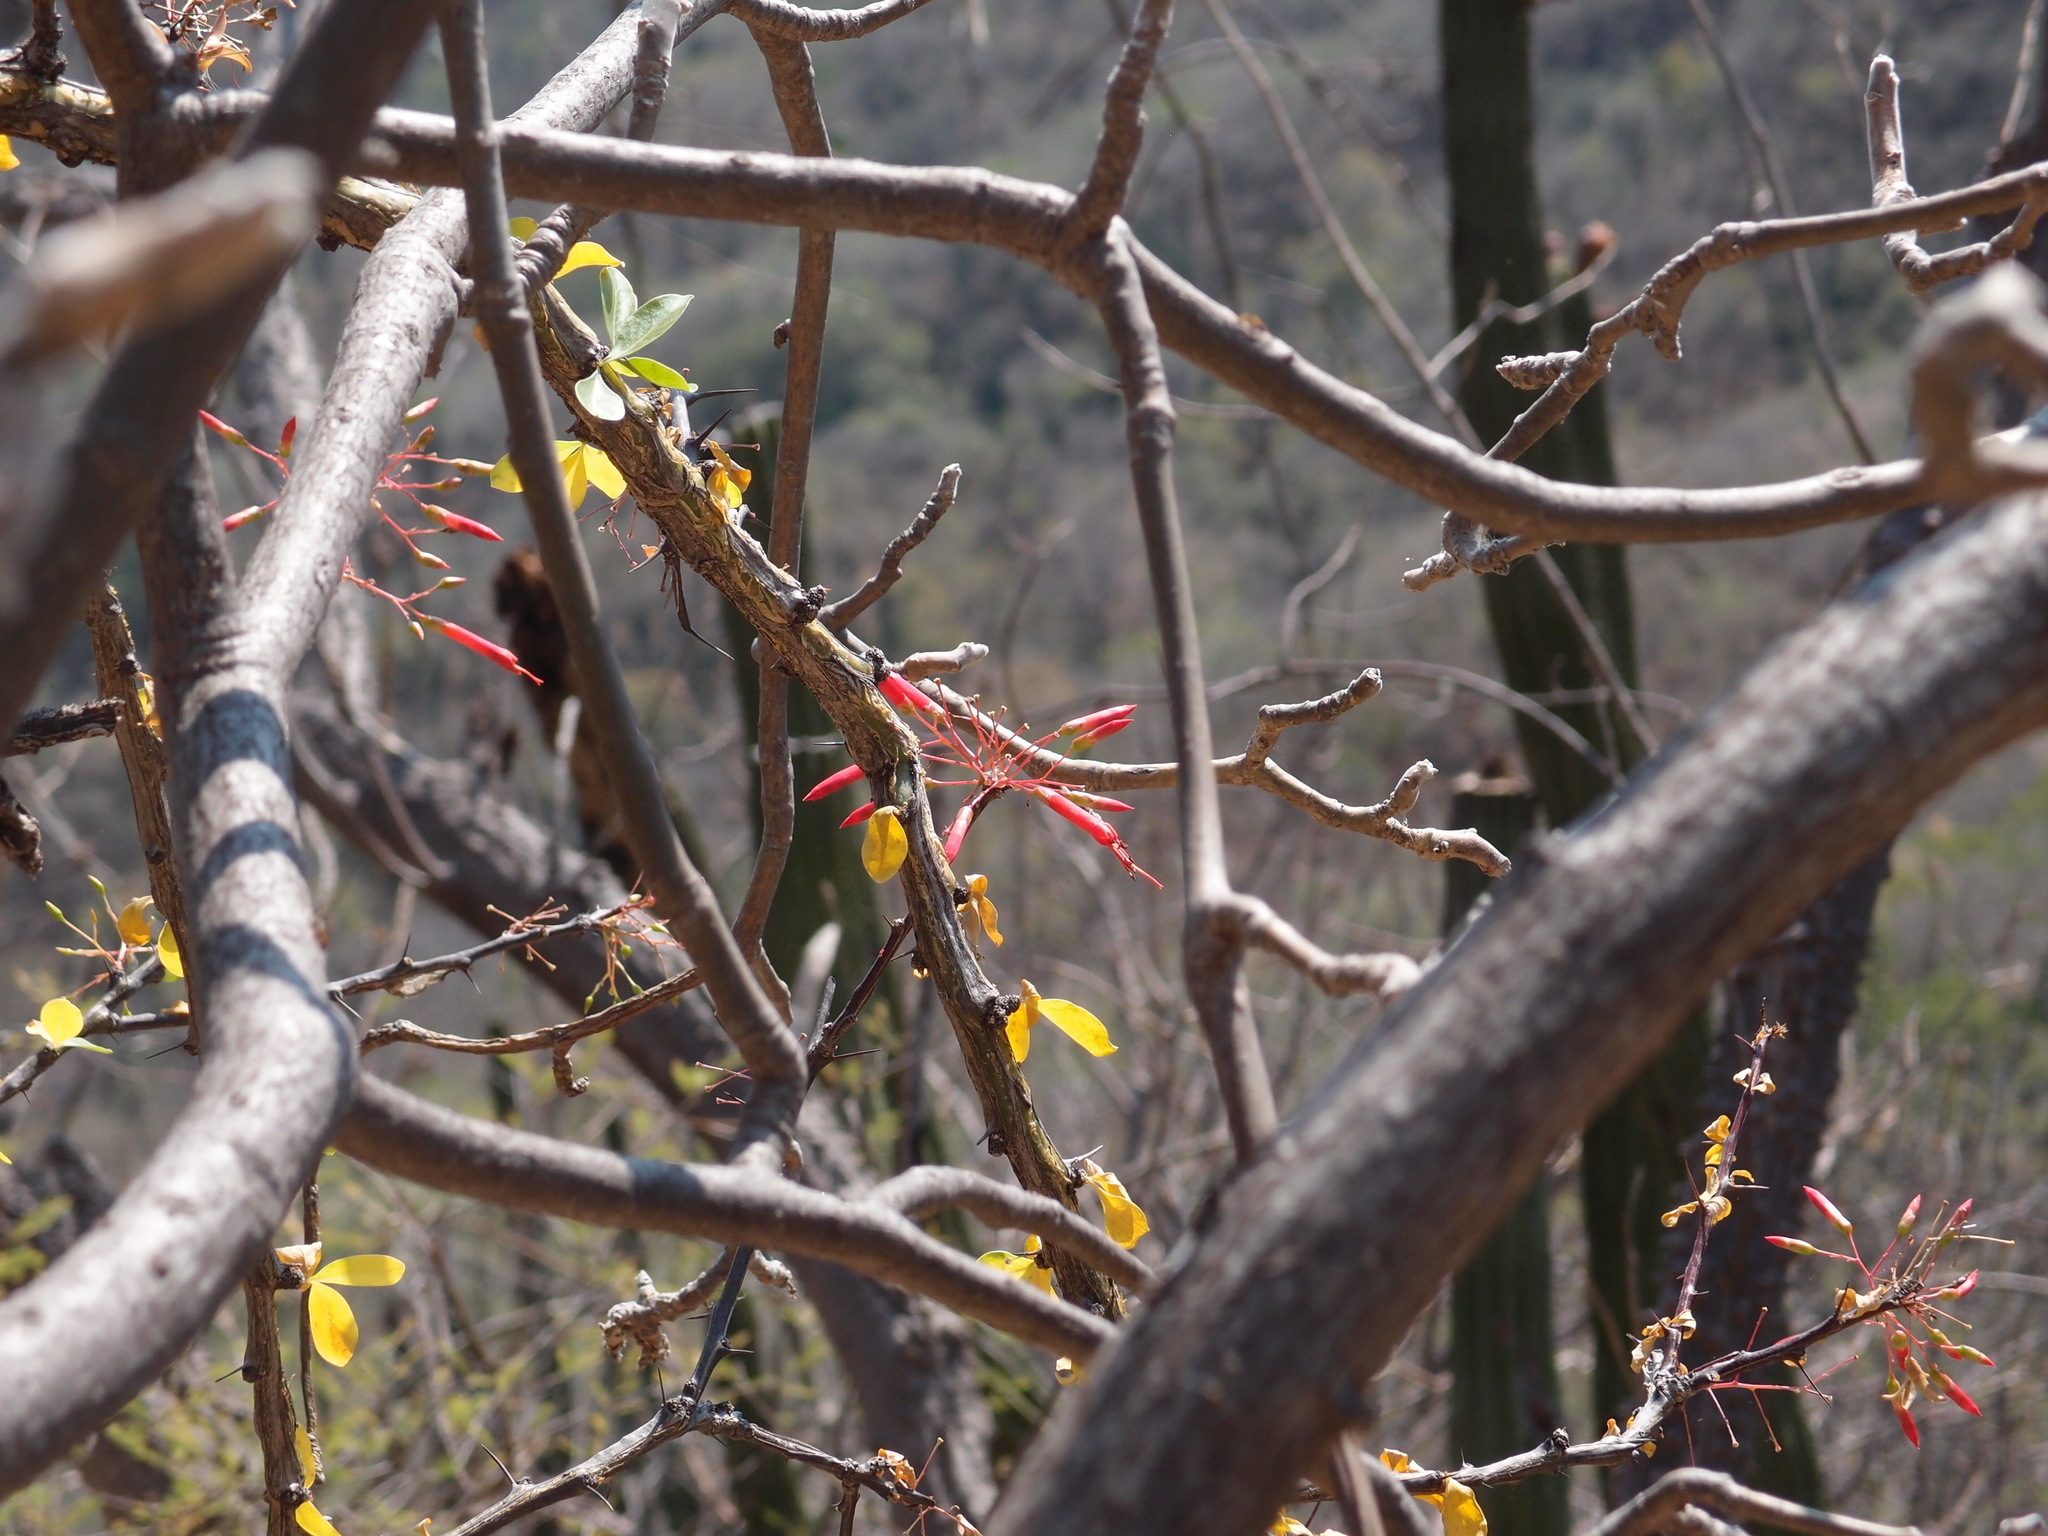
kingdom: Plantae
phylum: Tracheophyta
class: Magnoliopsida
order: Ericales
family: Fouquieriaceae
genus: Fouquieria
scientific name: Fouquieria macdougalii
